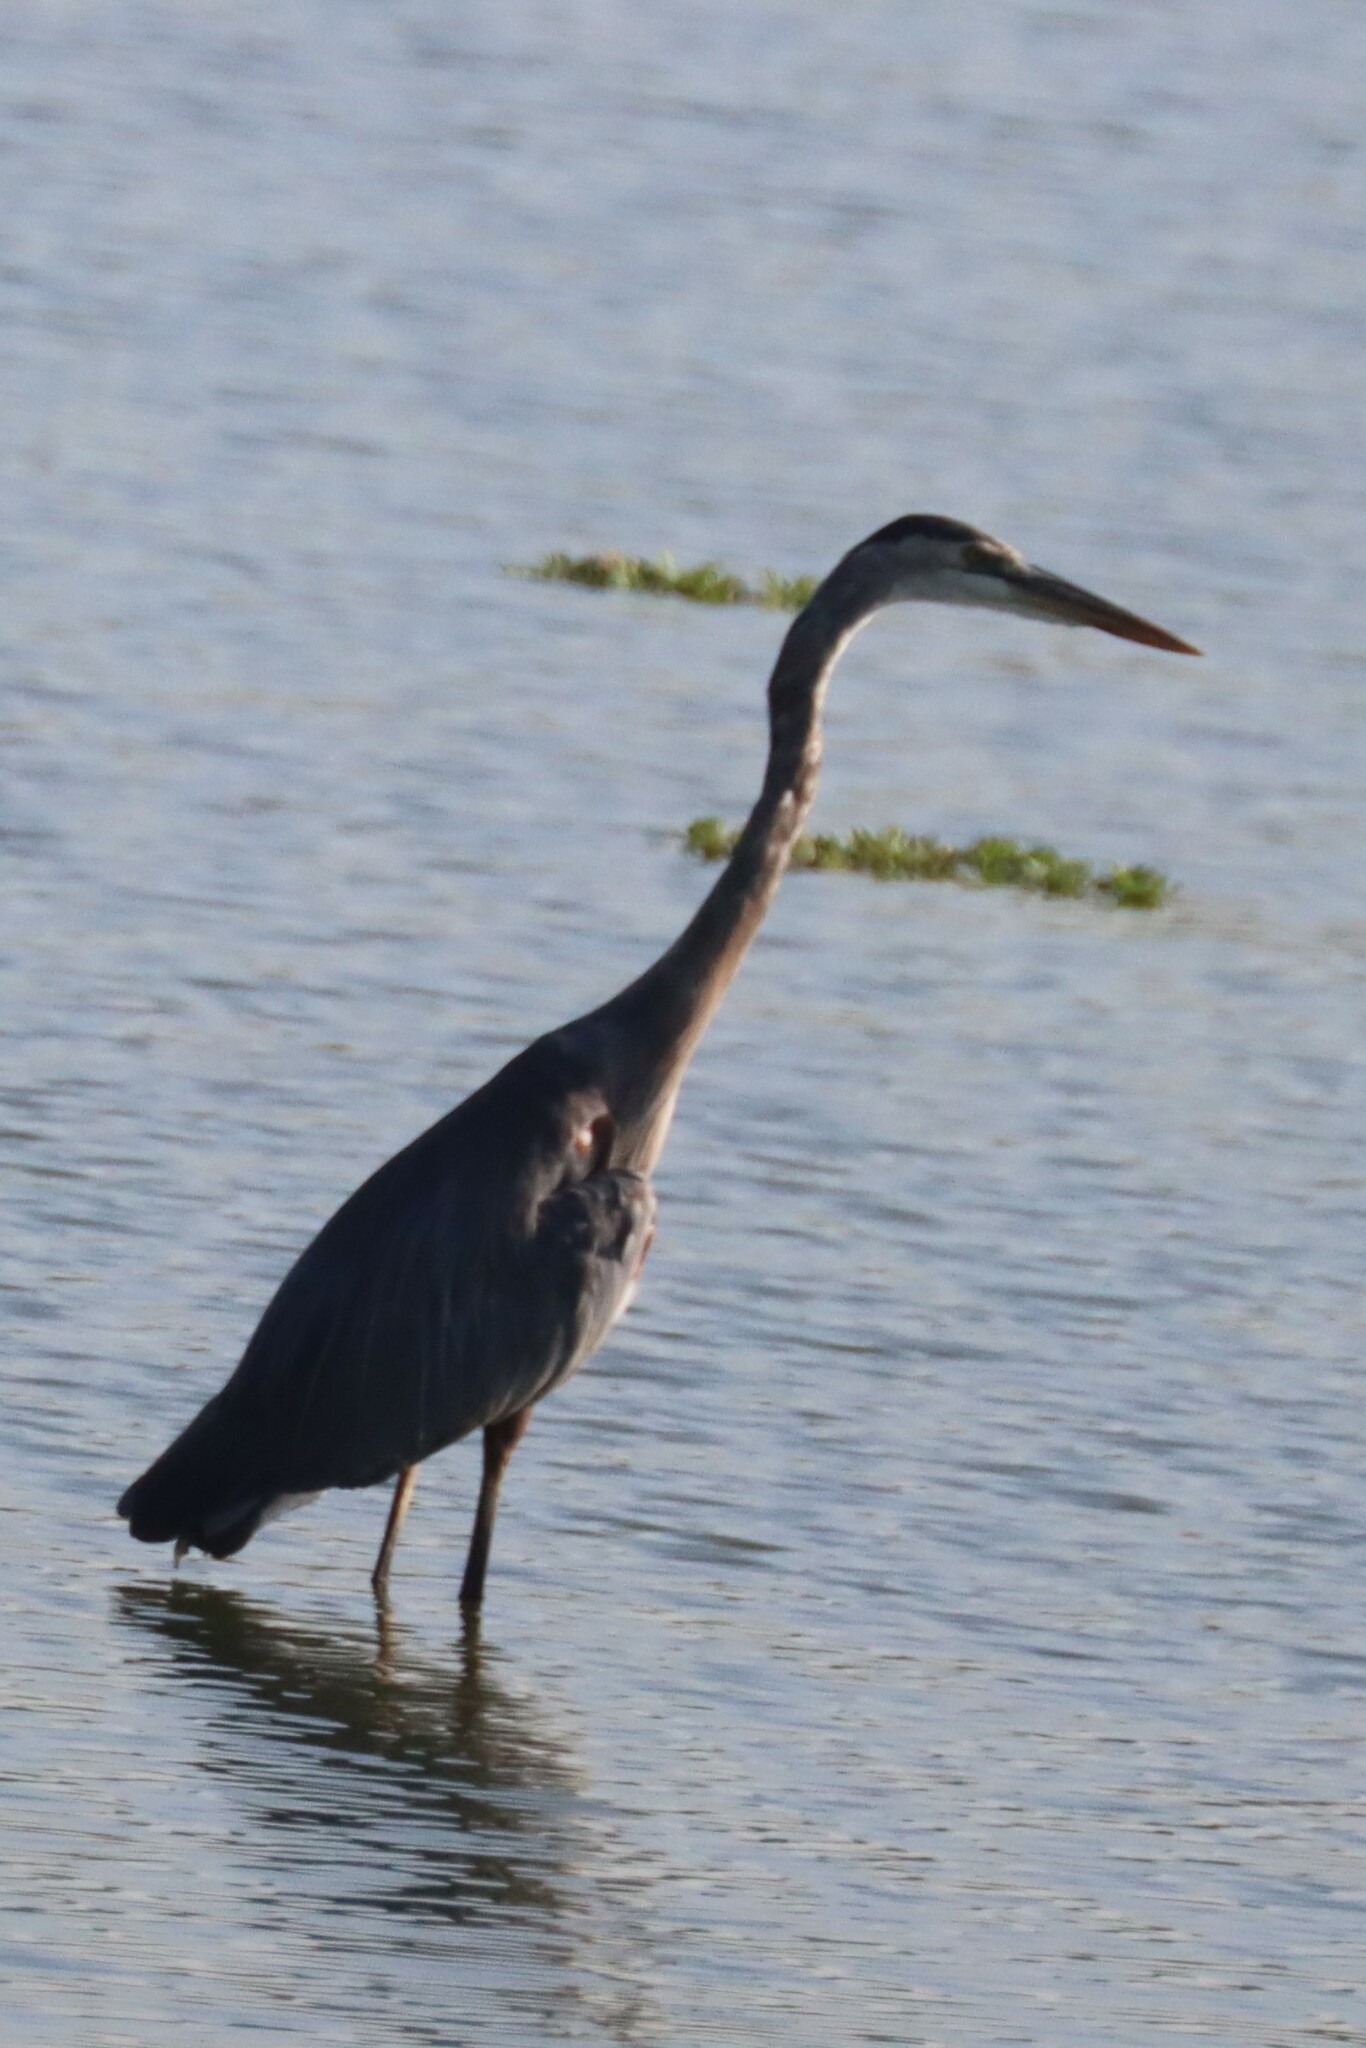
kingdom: Animalia
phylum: Chordata
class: Aves
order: Pelecaniformes
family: Ardeidae
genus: Ardea
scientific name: Ardea herodias
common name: Great blue heron
